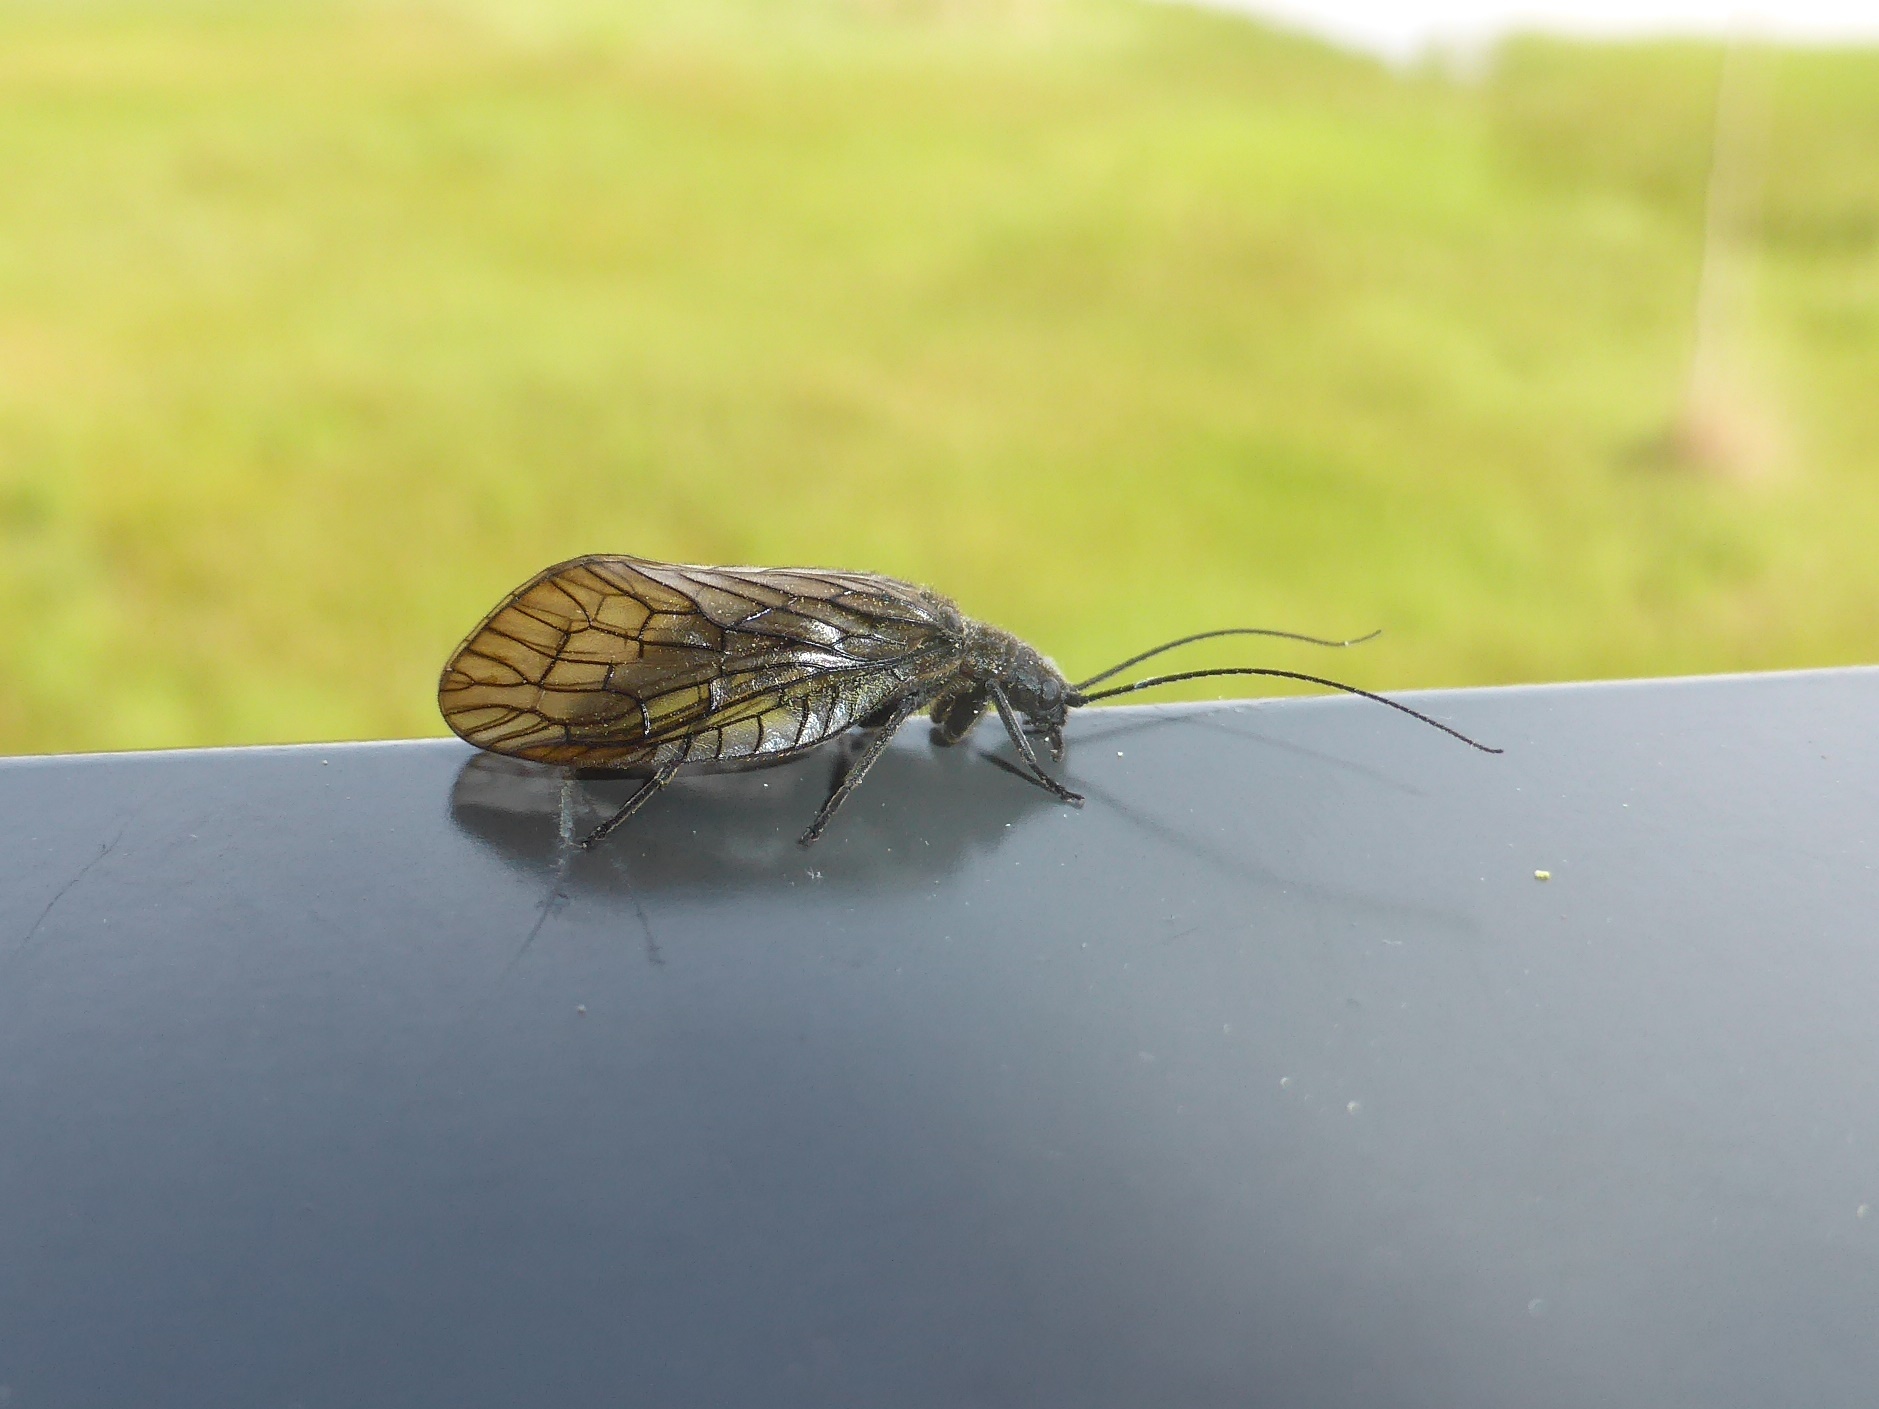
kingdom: Animalia
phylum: Arthropoda
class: Insecta
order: Megaloptera
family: Sialidae
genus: Sialis
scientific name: Sialis
